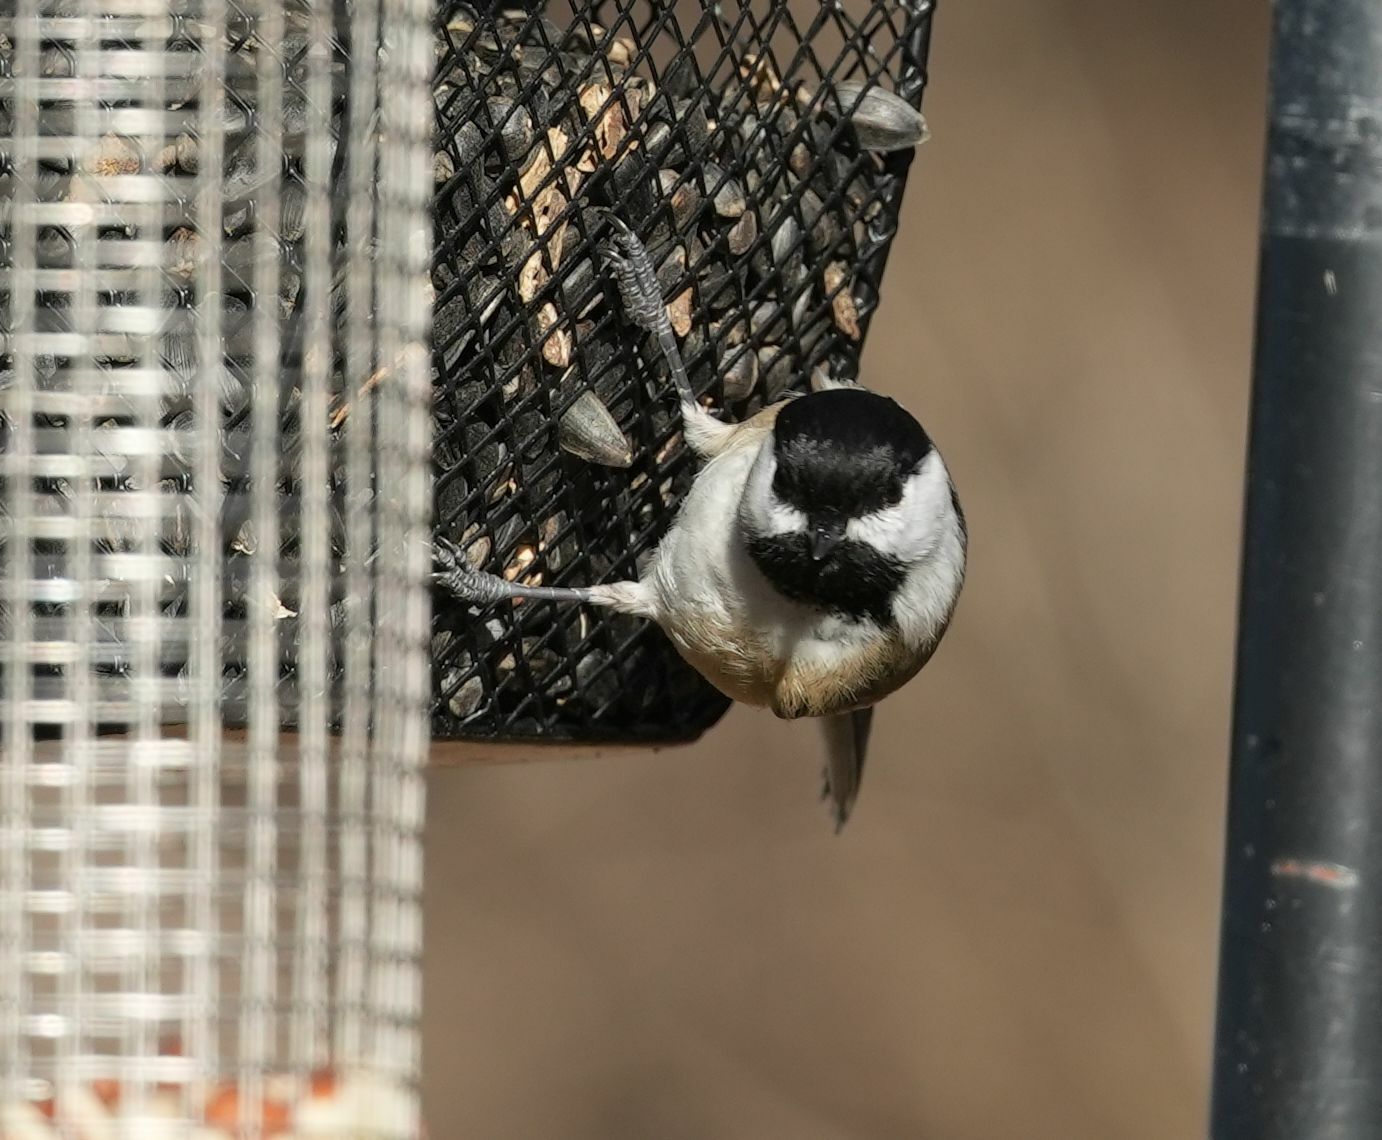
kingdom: Animalia
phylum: Chordata
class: Aves
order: Passeriformes
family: Paridae
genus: Poecile
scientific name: Poecile atricapillus
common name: Black-capped chickadee
